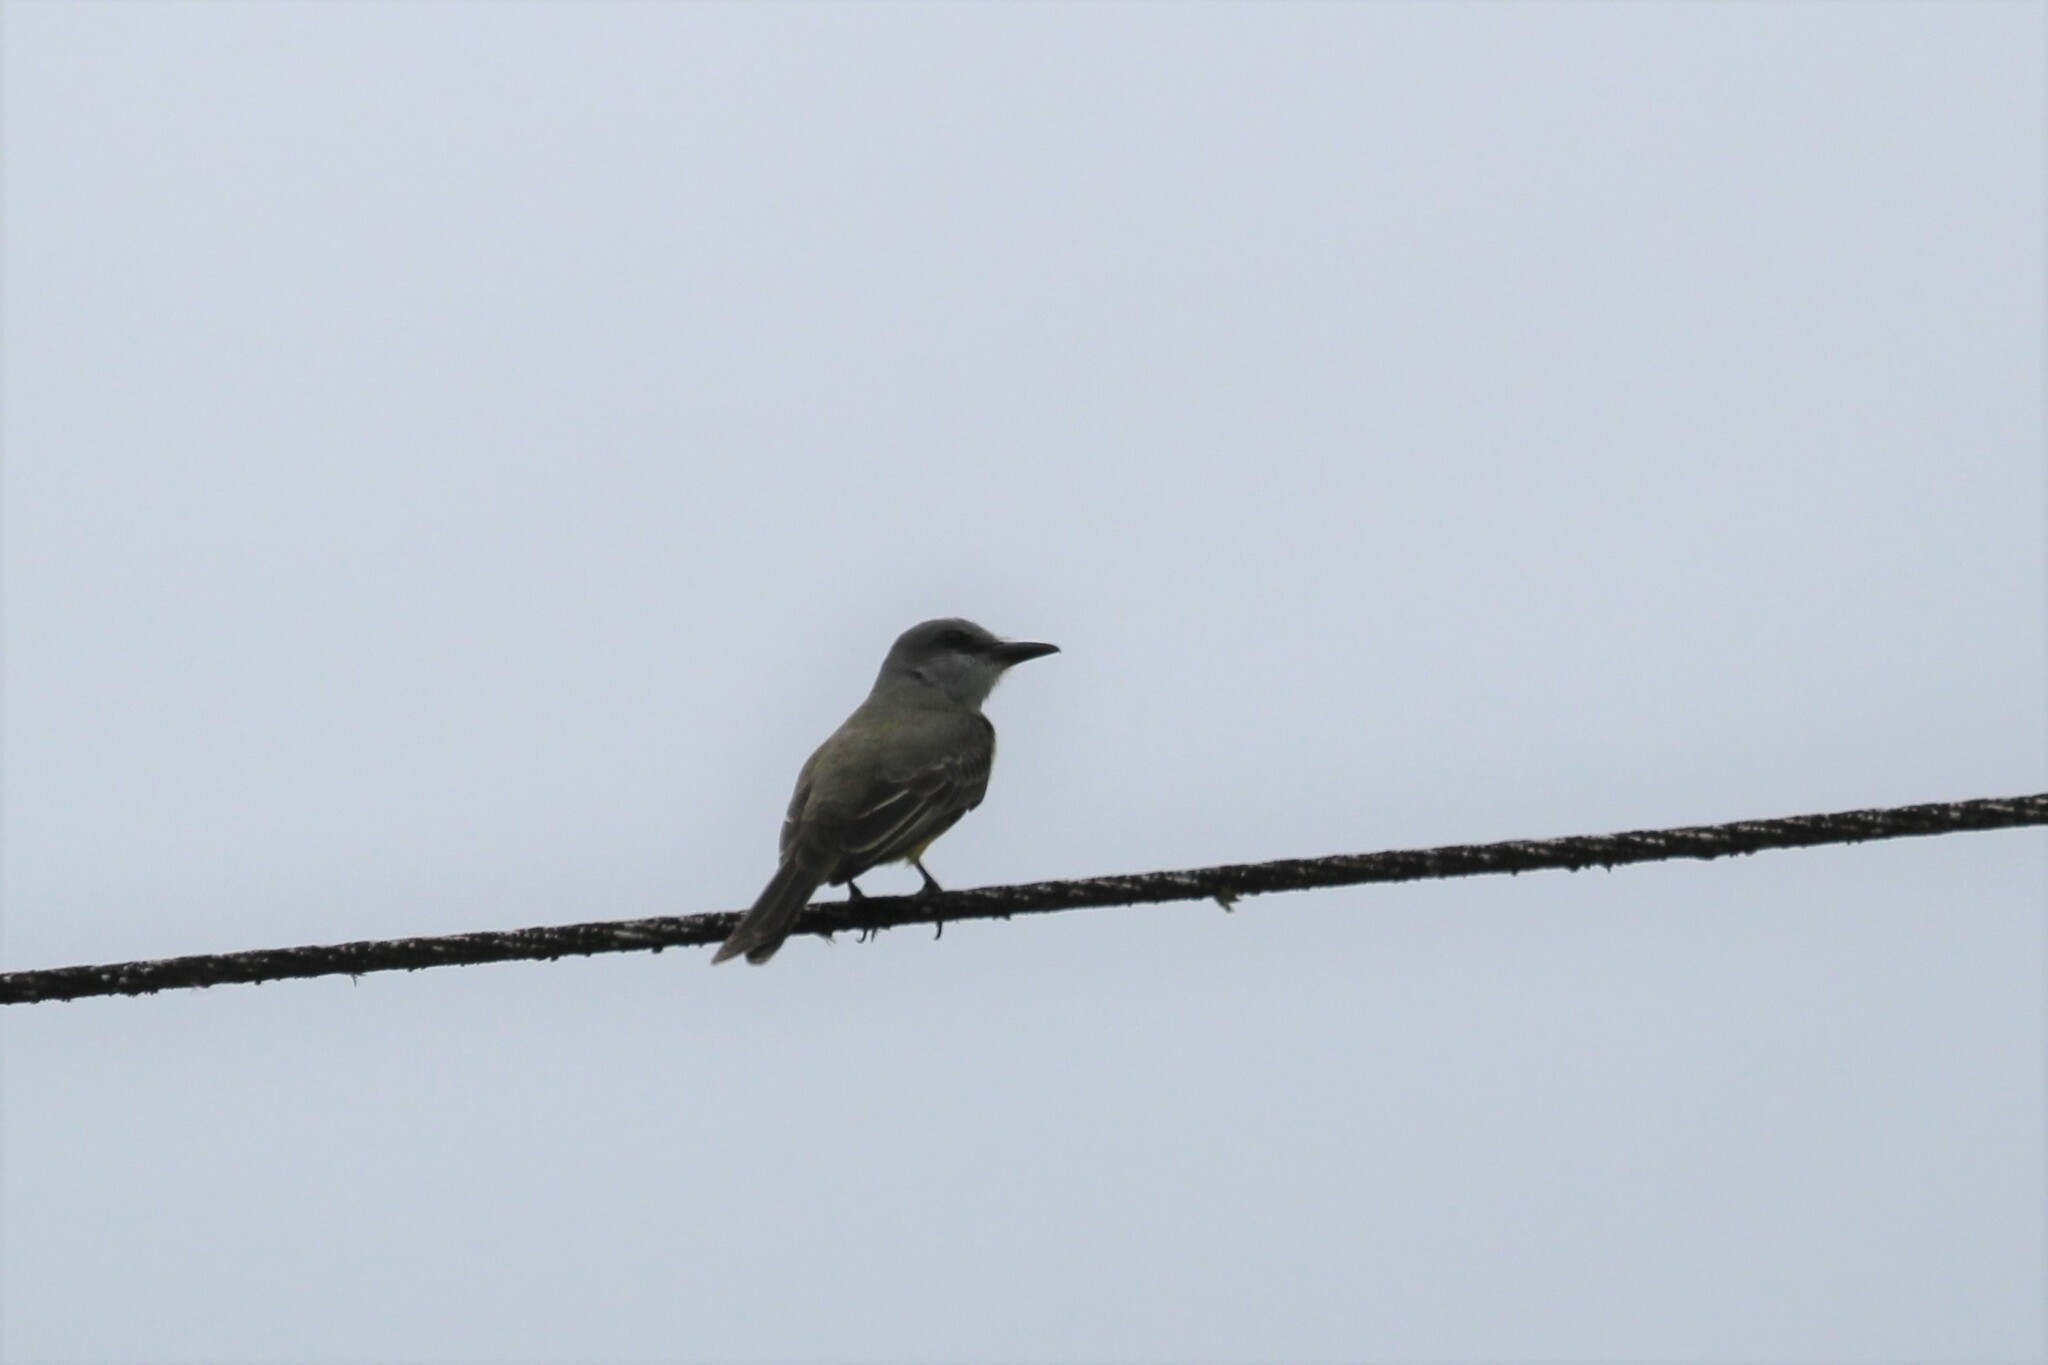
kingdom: Animalia
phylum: Chordata
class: Aves
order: Passeriformes
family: Tyrannidae
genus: Tyrannus
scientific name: Tyrannus melancholicus
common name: Tropical kingbird
